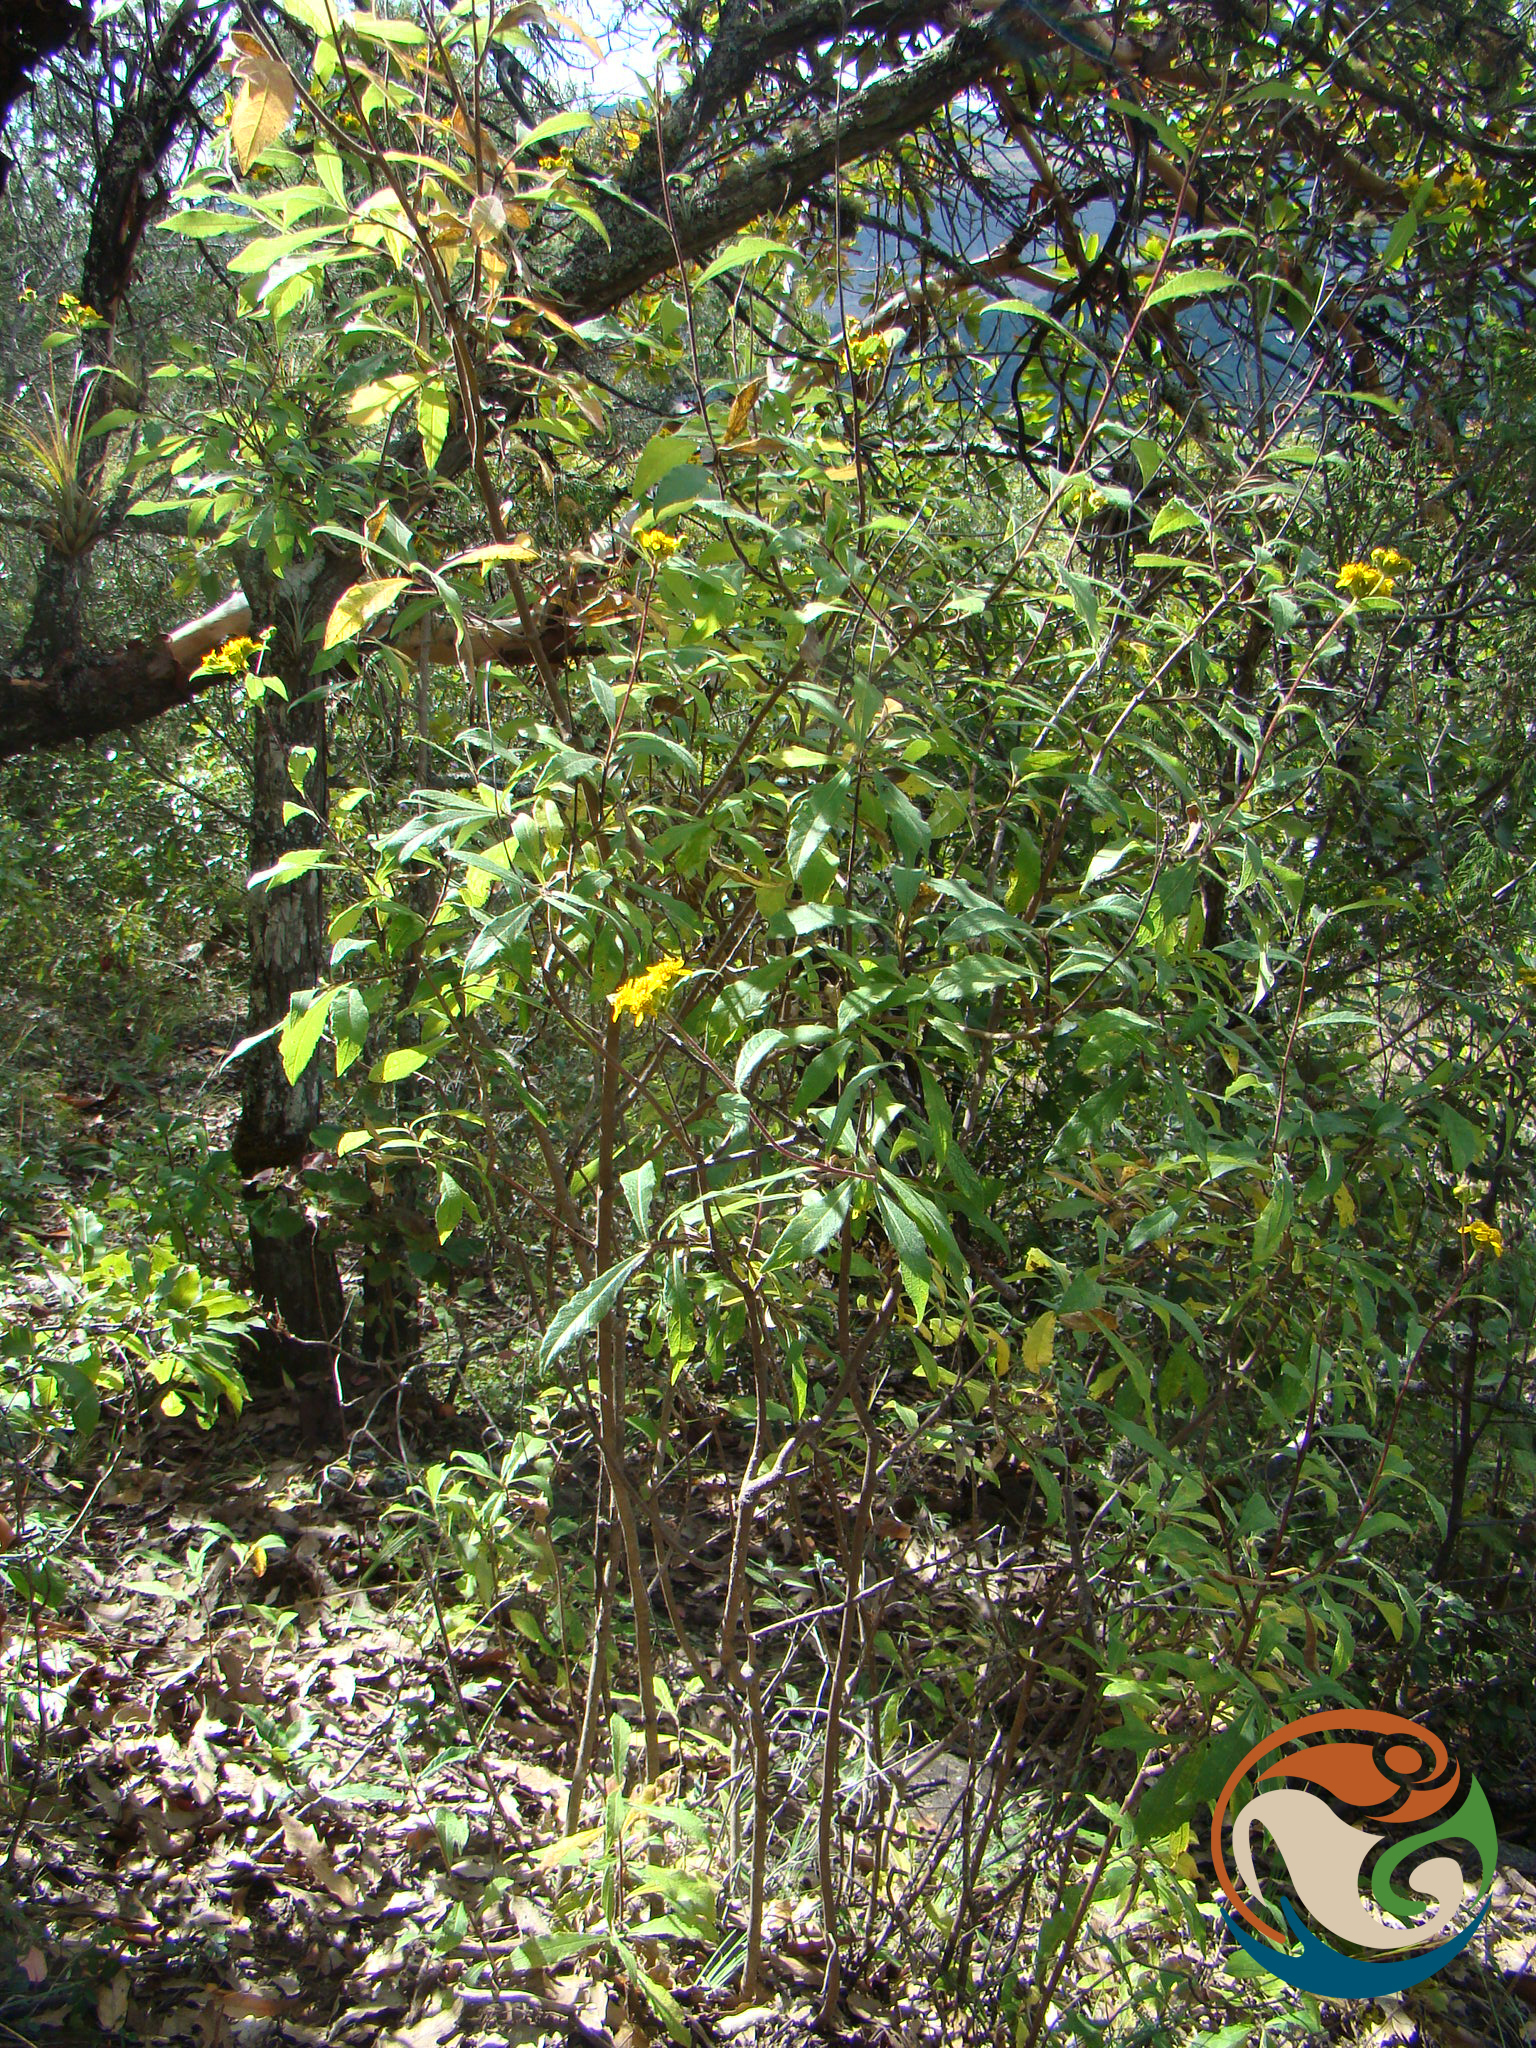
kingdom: Plantae
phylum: Tracheophyta
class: Magnoliopsida
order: Asterales
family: Asteraceae
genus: Verbesina
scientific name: Verbesina persicifolia
